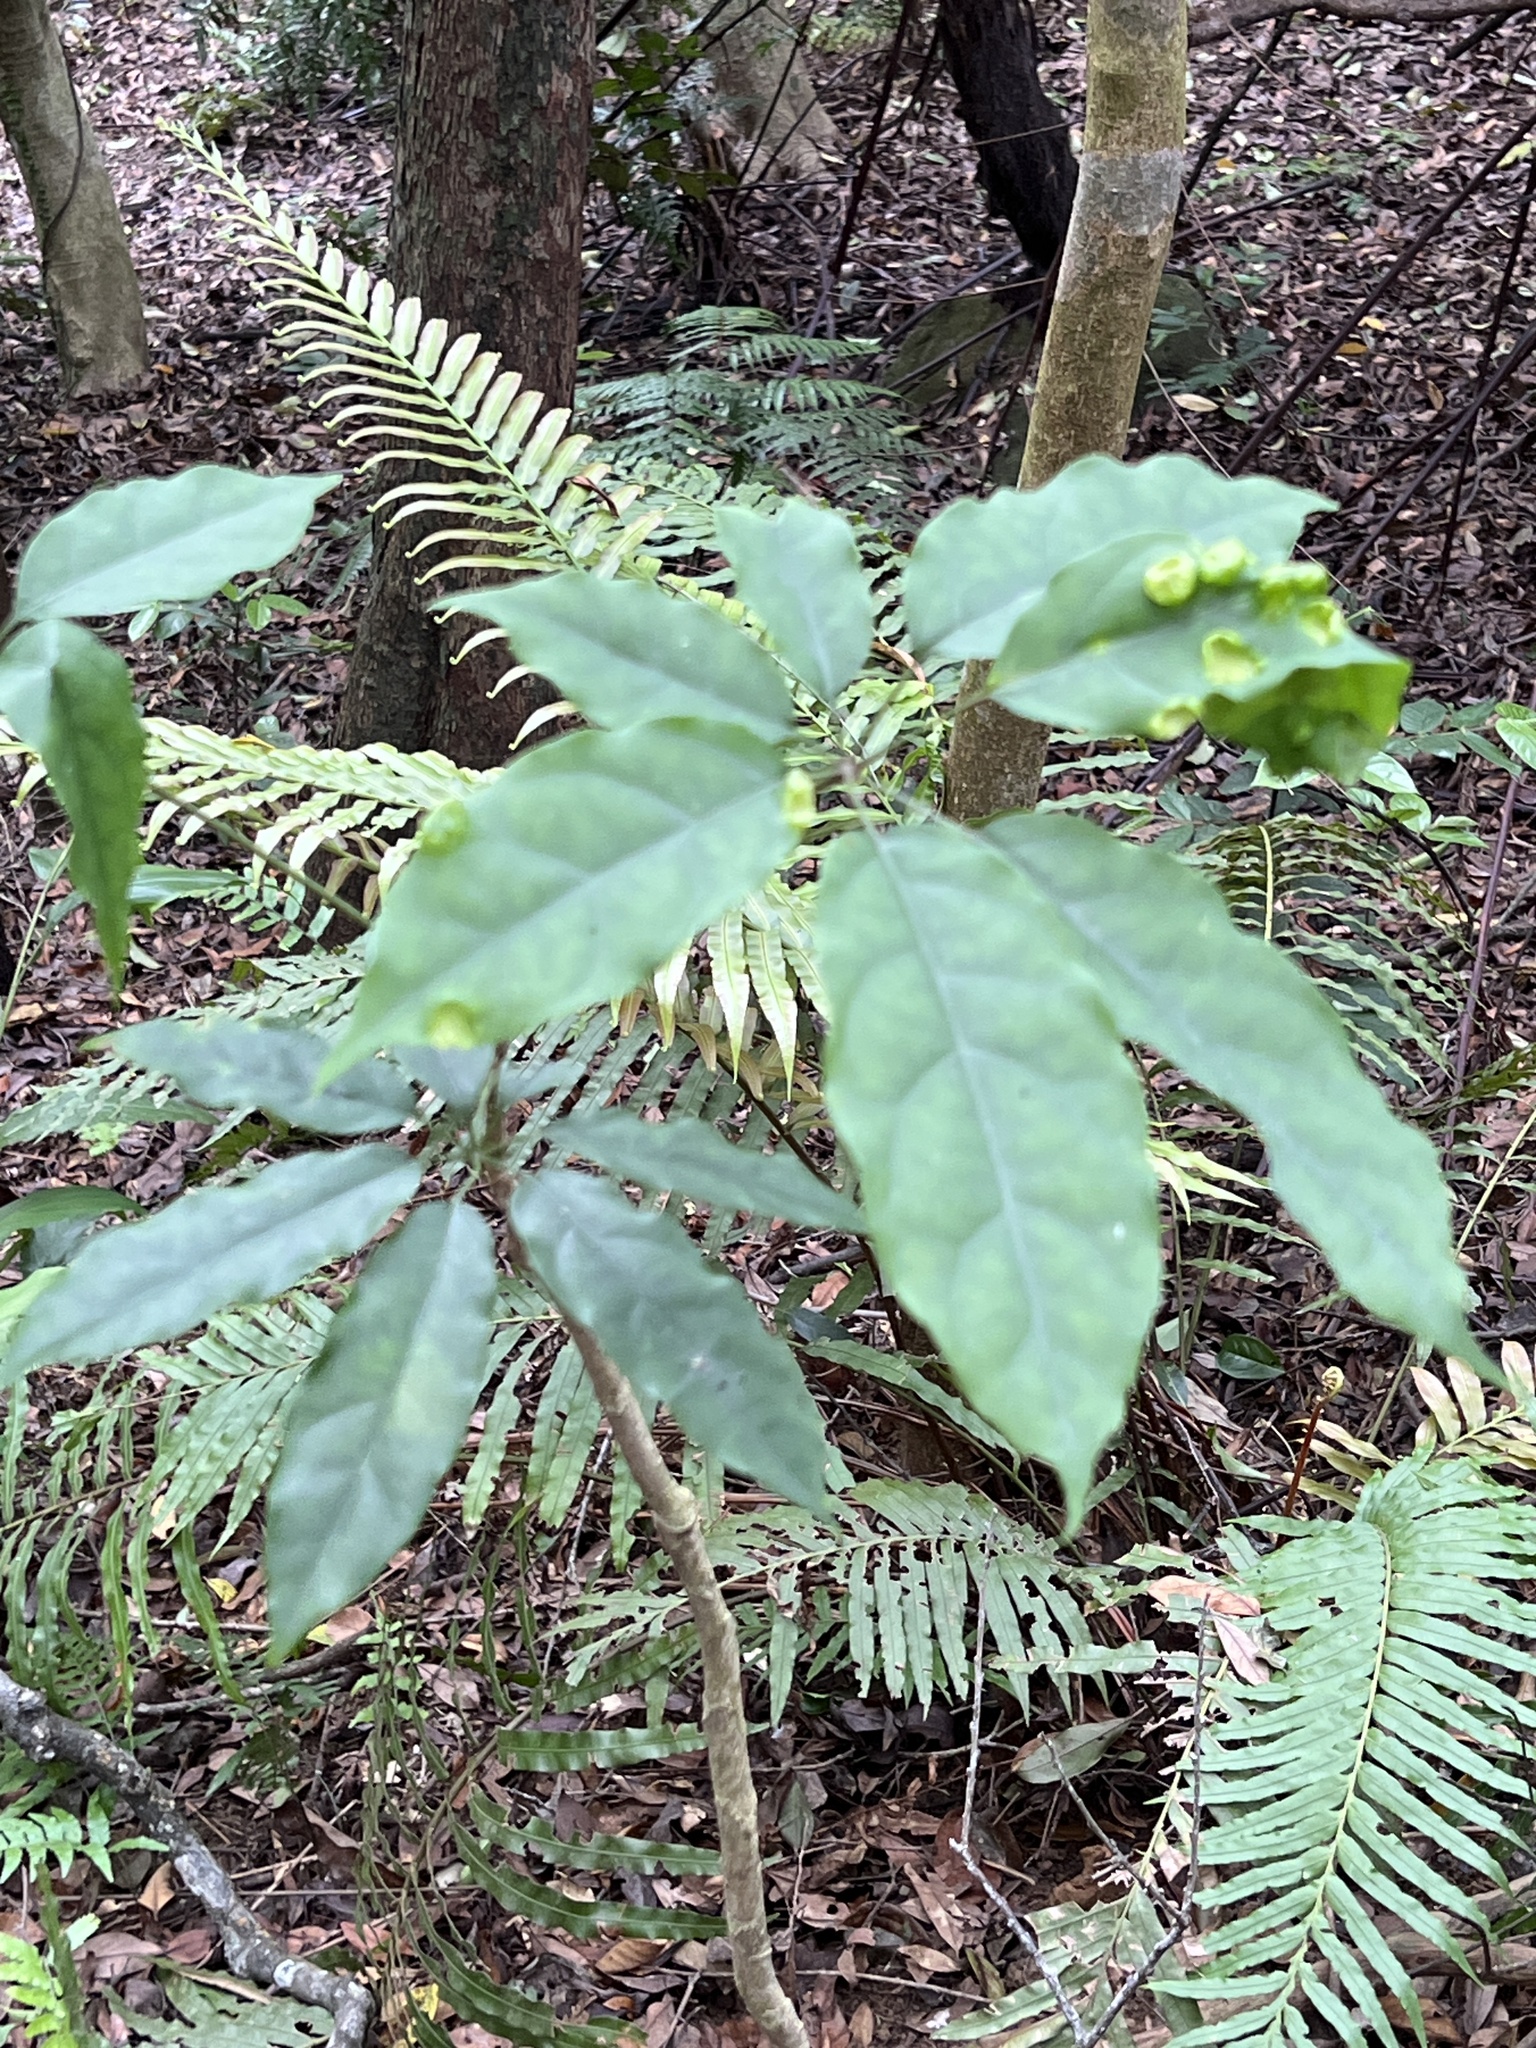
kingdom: Plantae
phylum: Tracheophyta
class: Magnoliopsida
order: Apiales
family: Araliaceae
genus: Heptapleurum
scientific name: Heptapleurum heptaphyllum
